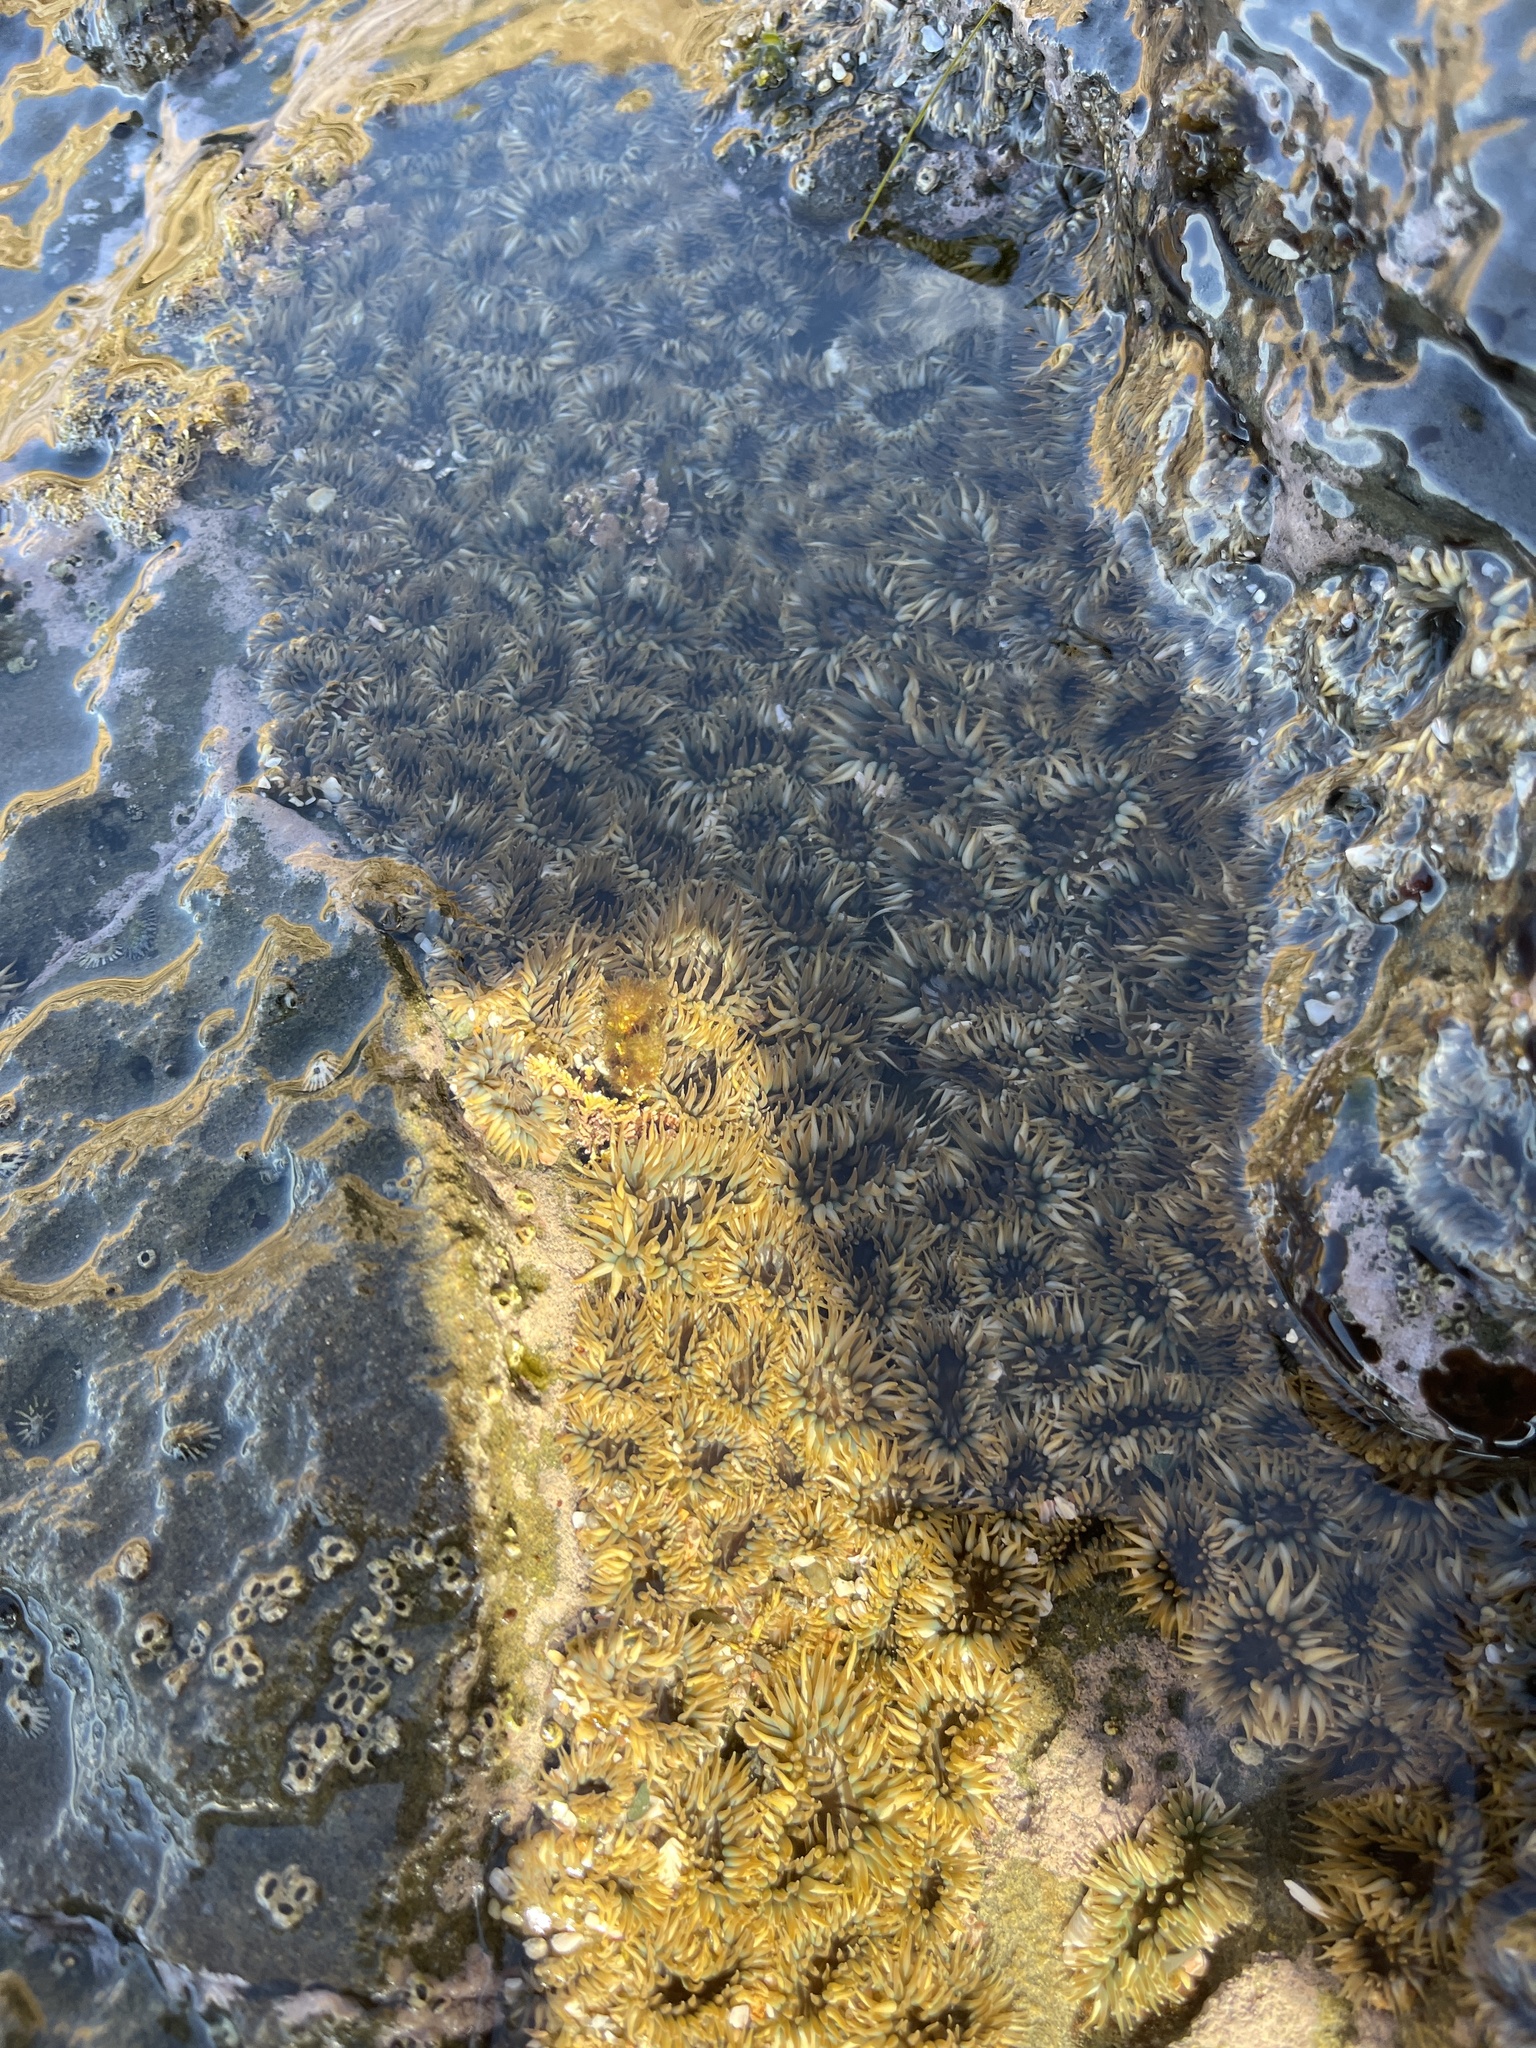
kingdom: Animalia
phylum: Cnidaria
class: Anthozoa
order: Actiniaria
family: Actiniidae
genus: Anthopleura
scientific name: Anthopleura elegantissima
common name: Clonal anemone
